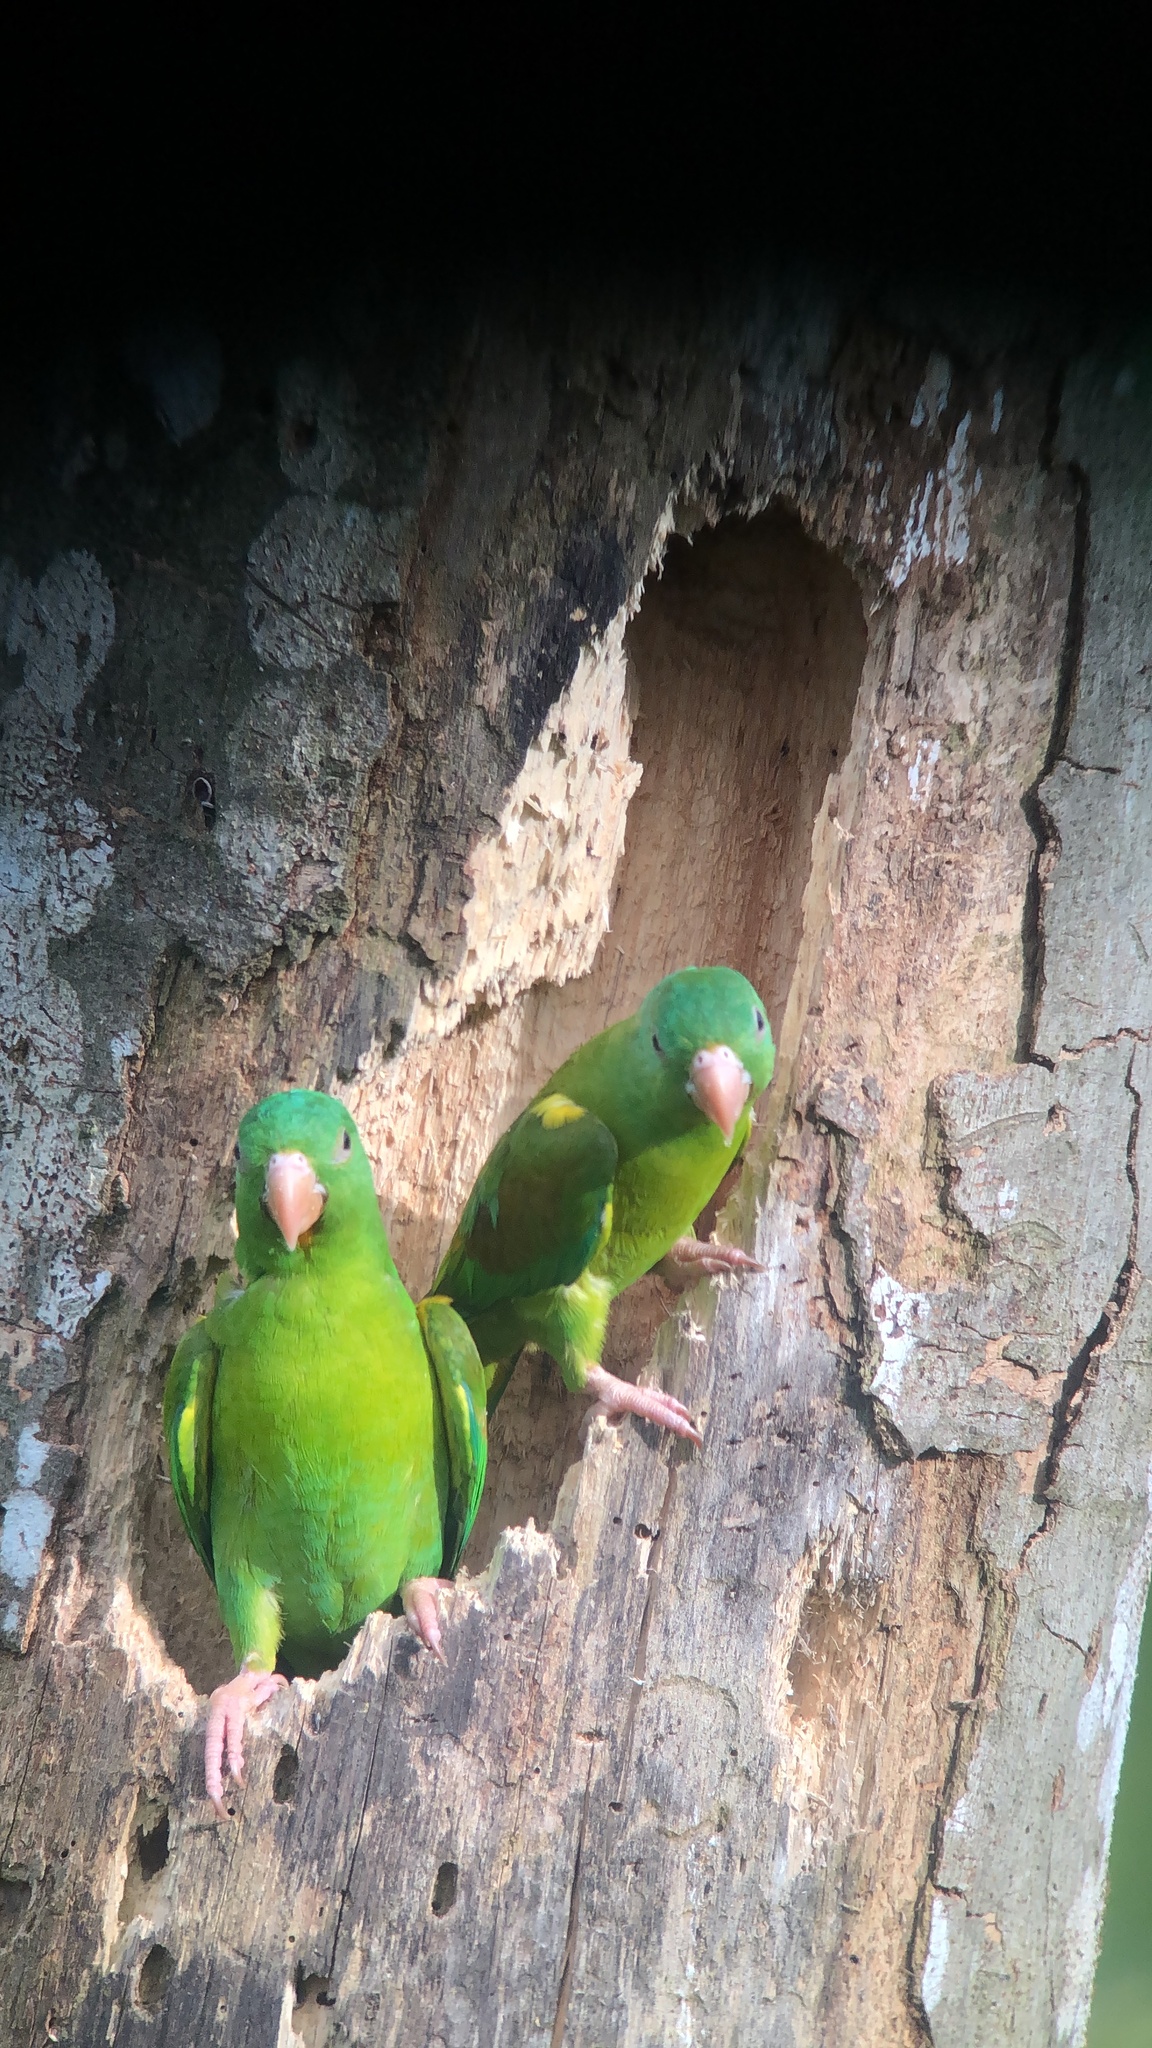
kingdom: Animalia
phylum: Chordata
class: Aves
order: Psittaciformes
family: Psittacidae
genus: Brotogeris
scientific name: Brotogeris jugularis
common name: Orange-chinned parakeet
